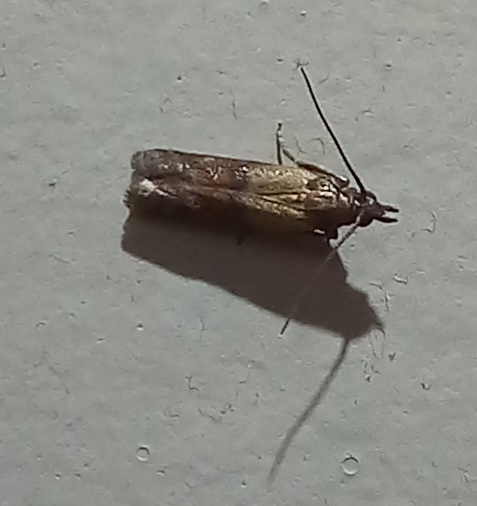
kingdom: Animalia
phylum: Arthropoda
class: Insecta
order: Lepidoptera
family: Pyralidae
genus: Plodia
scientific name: Plodia interpunctella
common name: Indian meal moth
